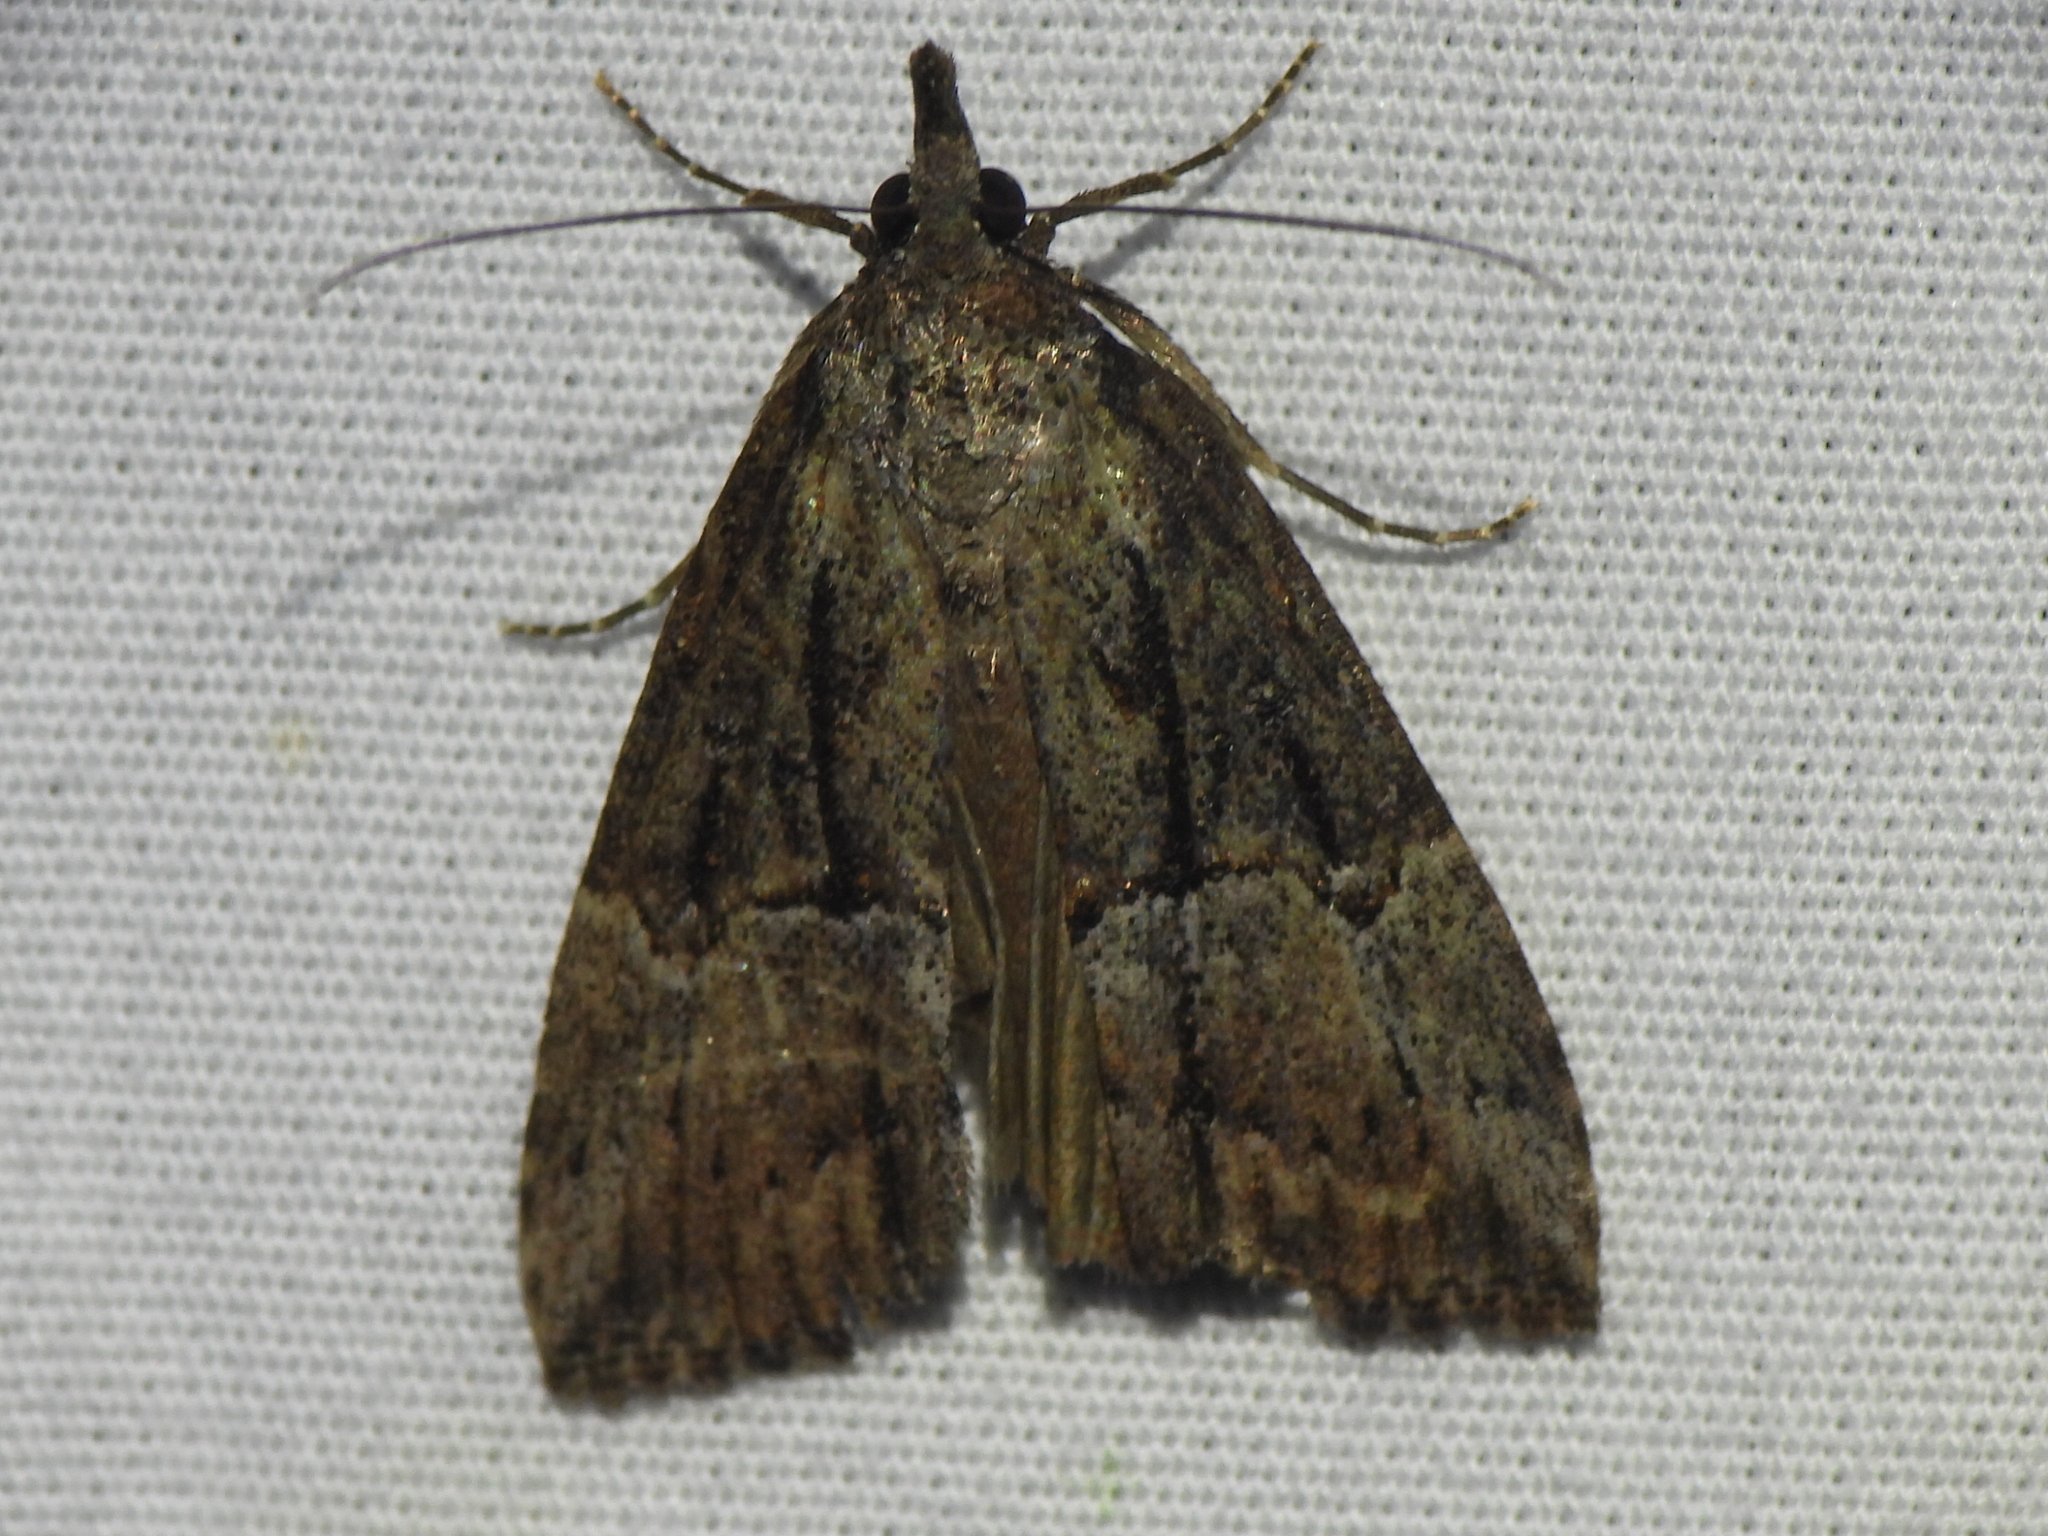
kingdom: Animalia
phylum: Arthropoda
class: Insecta
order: Lepidoptera
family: Erebidae
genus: Hypena
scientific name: Hypena scabra
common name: Green cloverworm
